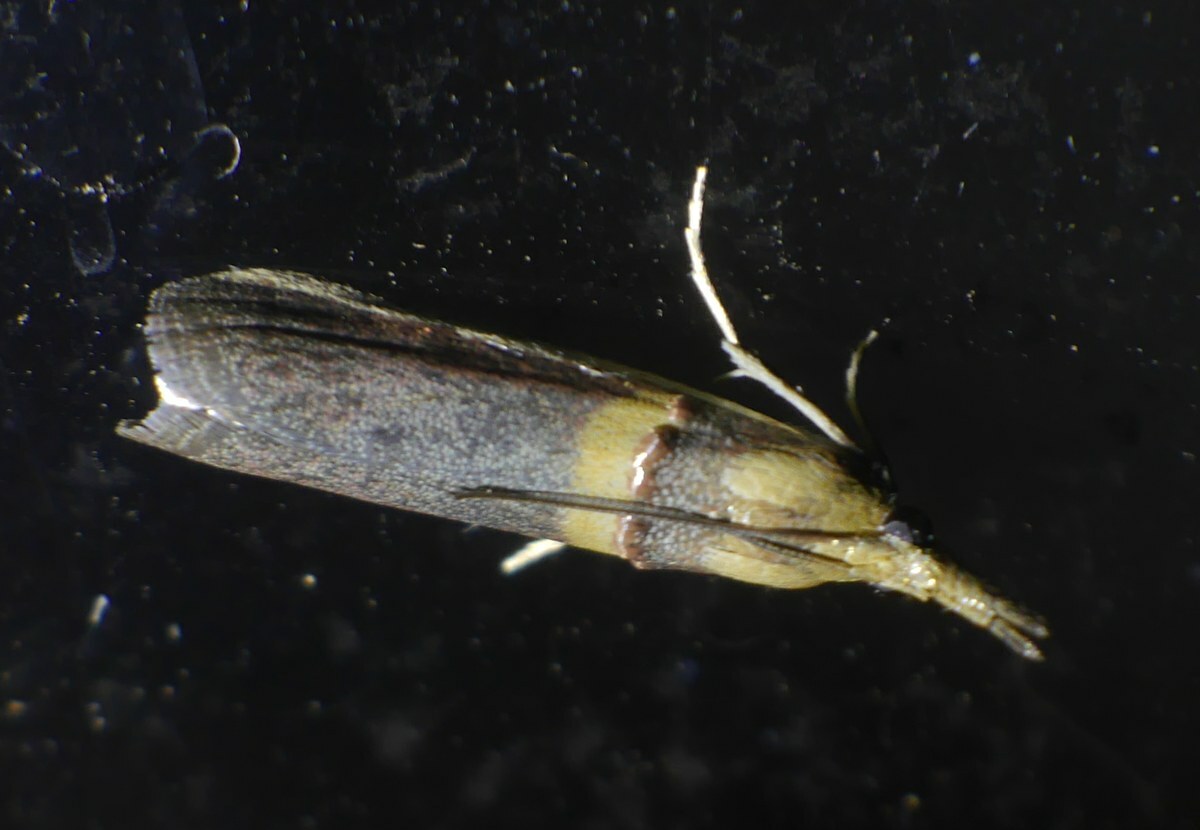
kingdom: Animalia
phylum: Arthropoda
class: Insecta
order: Lepidoptera
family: Pyralidae
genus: Etiella
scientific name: Etiella zinckenella
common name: Gold-banded etiella moth
